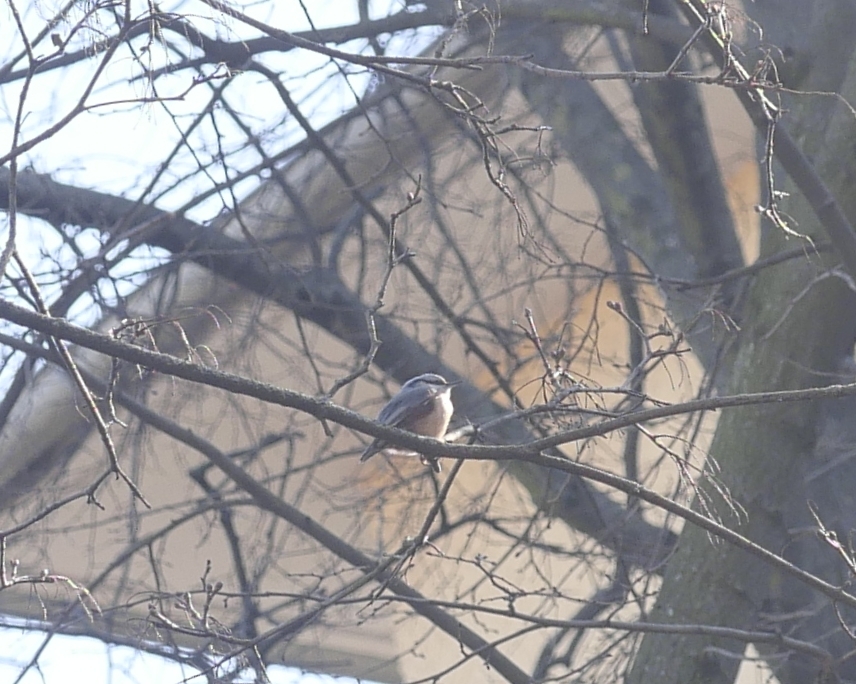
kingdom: Animalia
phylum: Chordata
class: Aves
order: Passeriformes
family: Sittidae
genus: Sitta
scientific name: Sitta europaea
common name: Eurasian nuthatch
